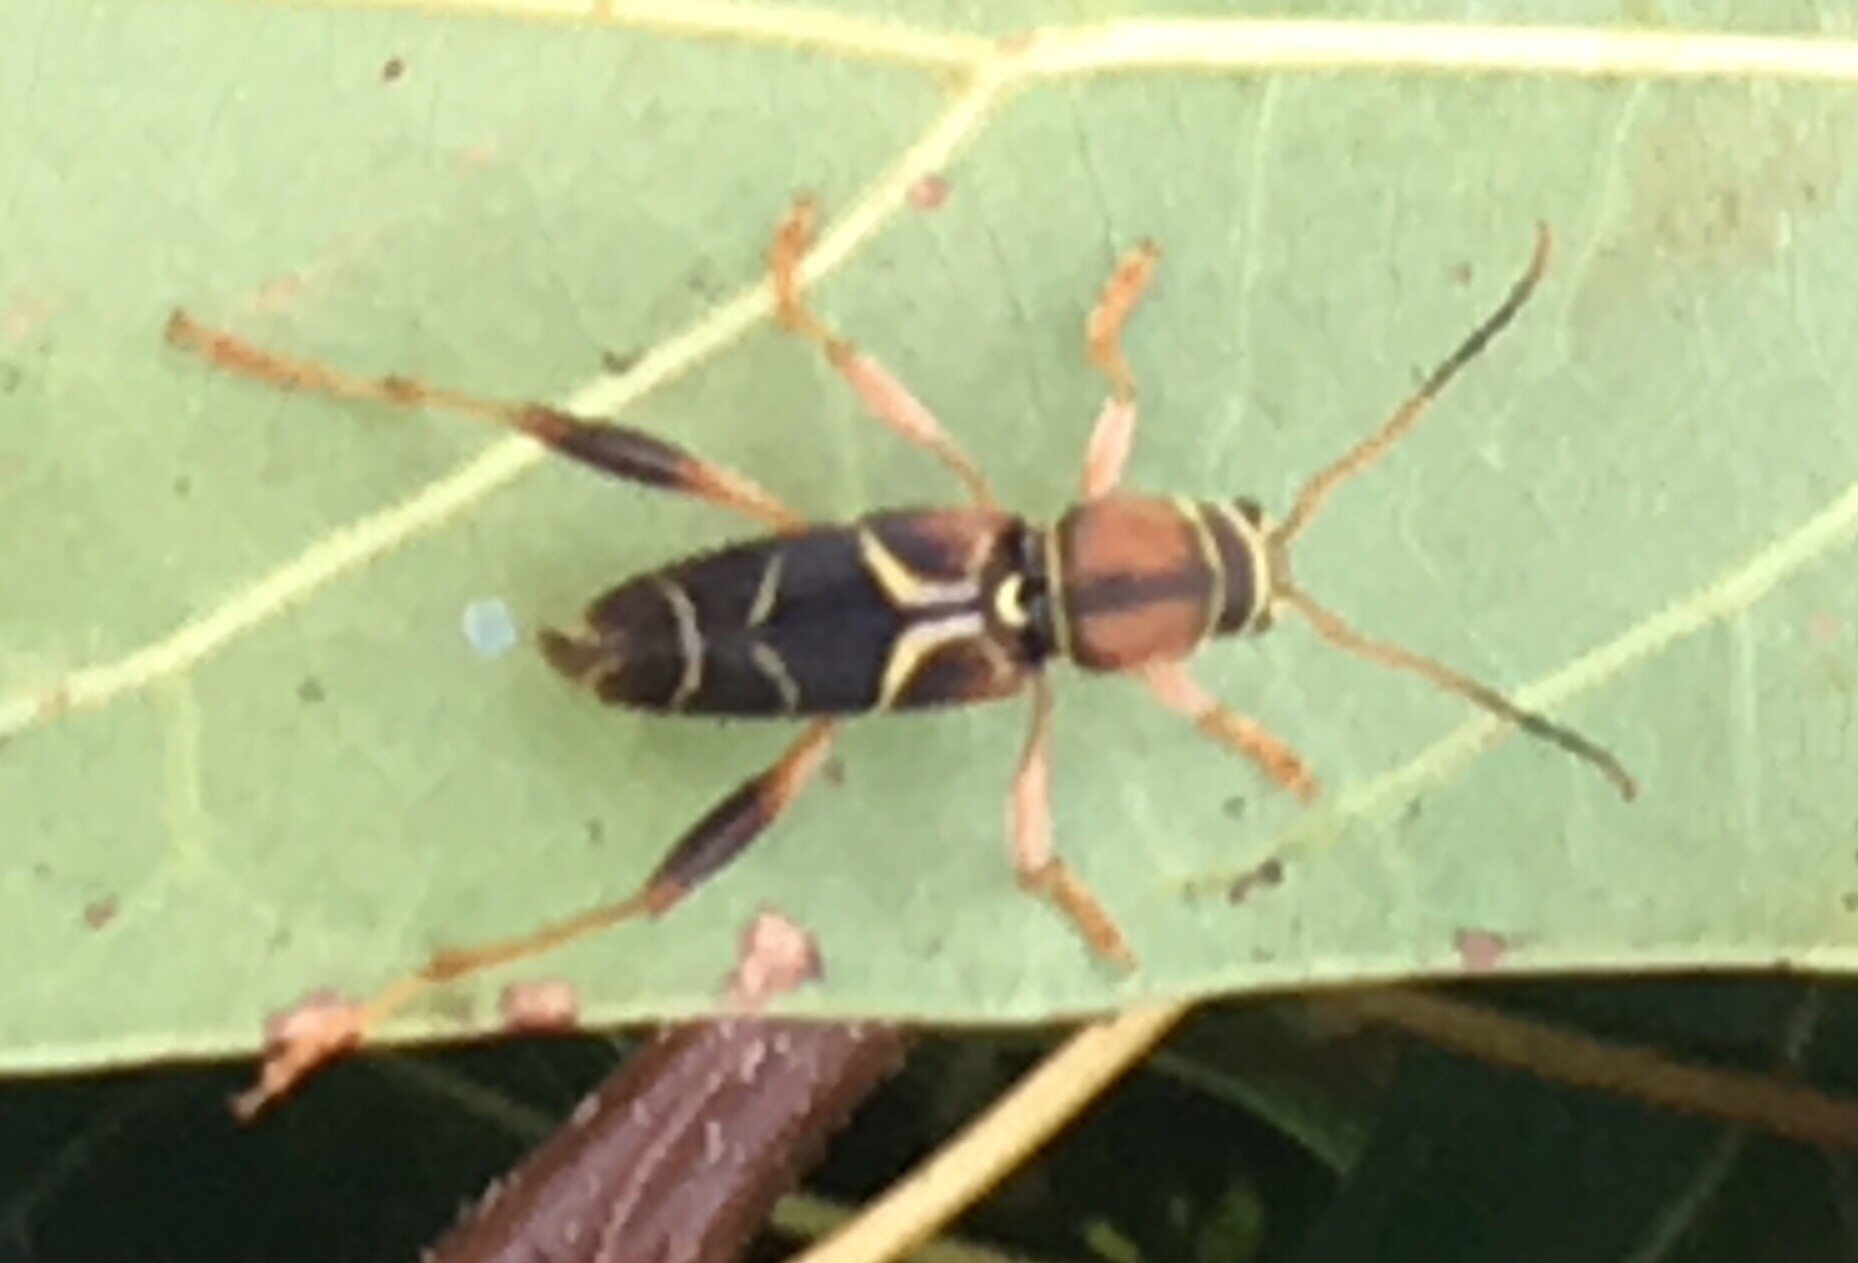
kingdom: Animalia
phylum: Arthropoda
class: Insecta
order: Coleoptera
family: Cerambycidae
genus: Neoclytus
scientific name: Neoclytus mucronatus
